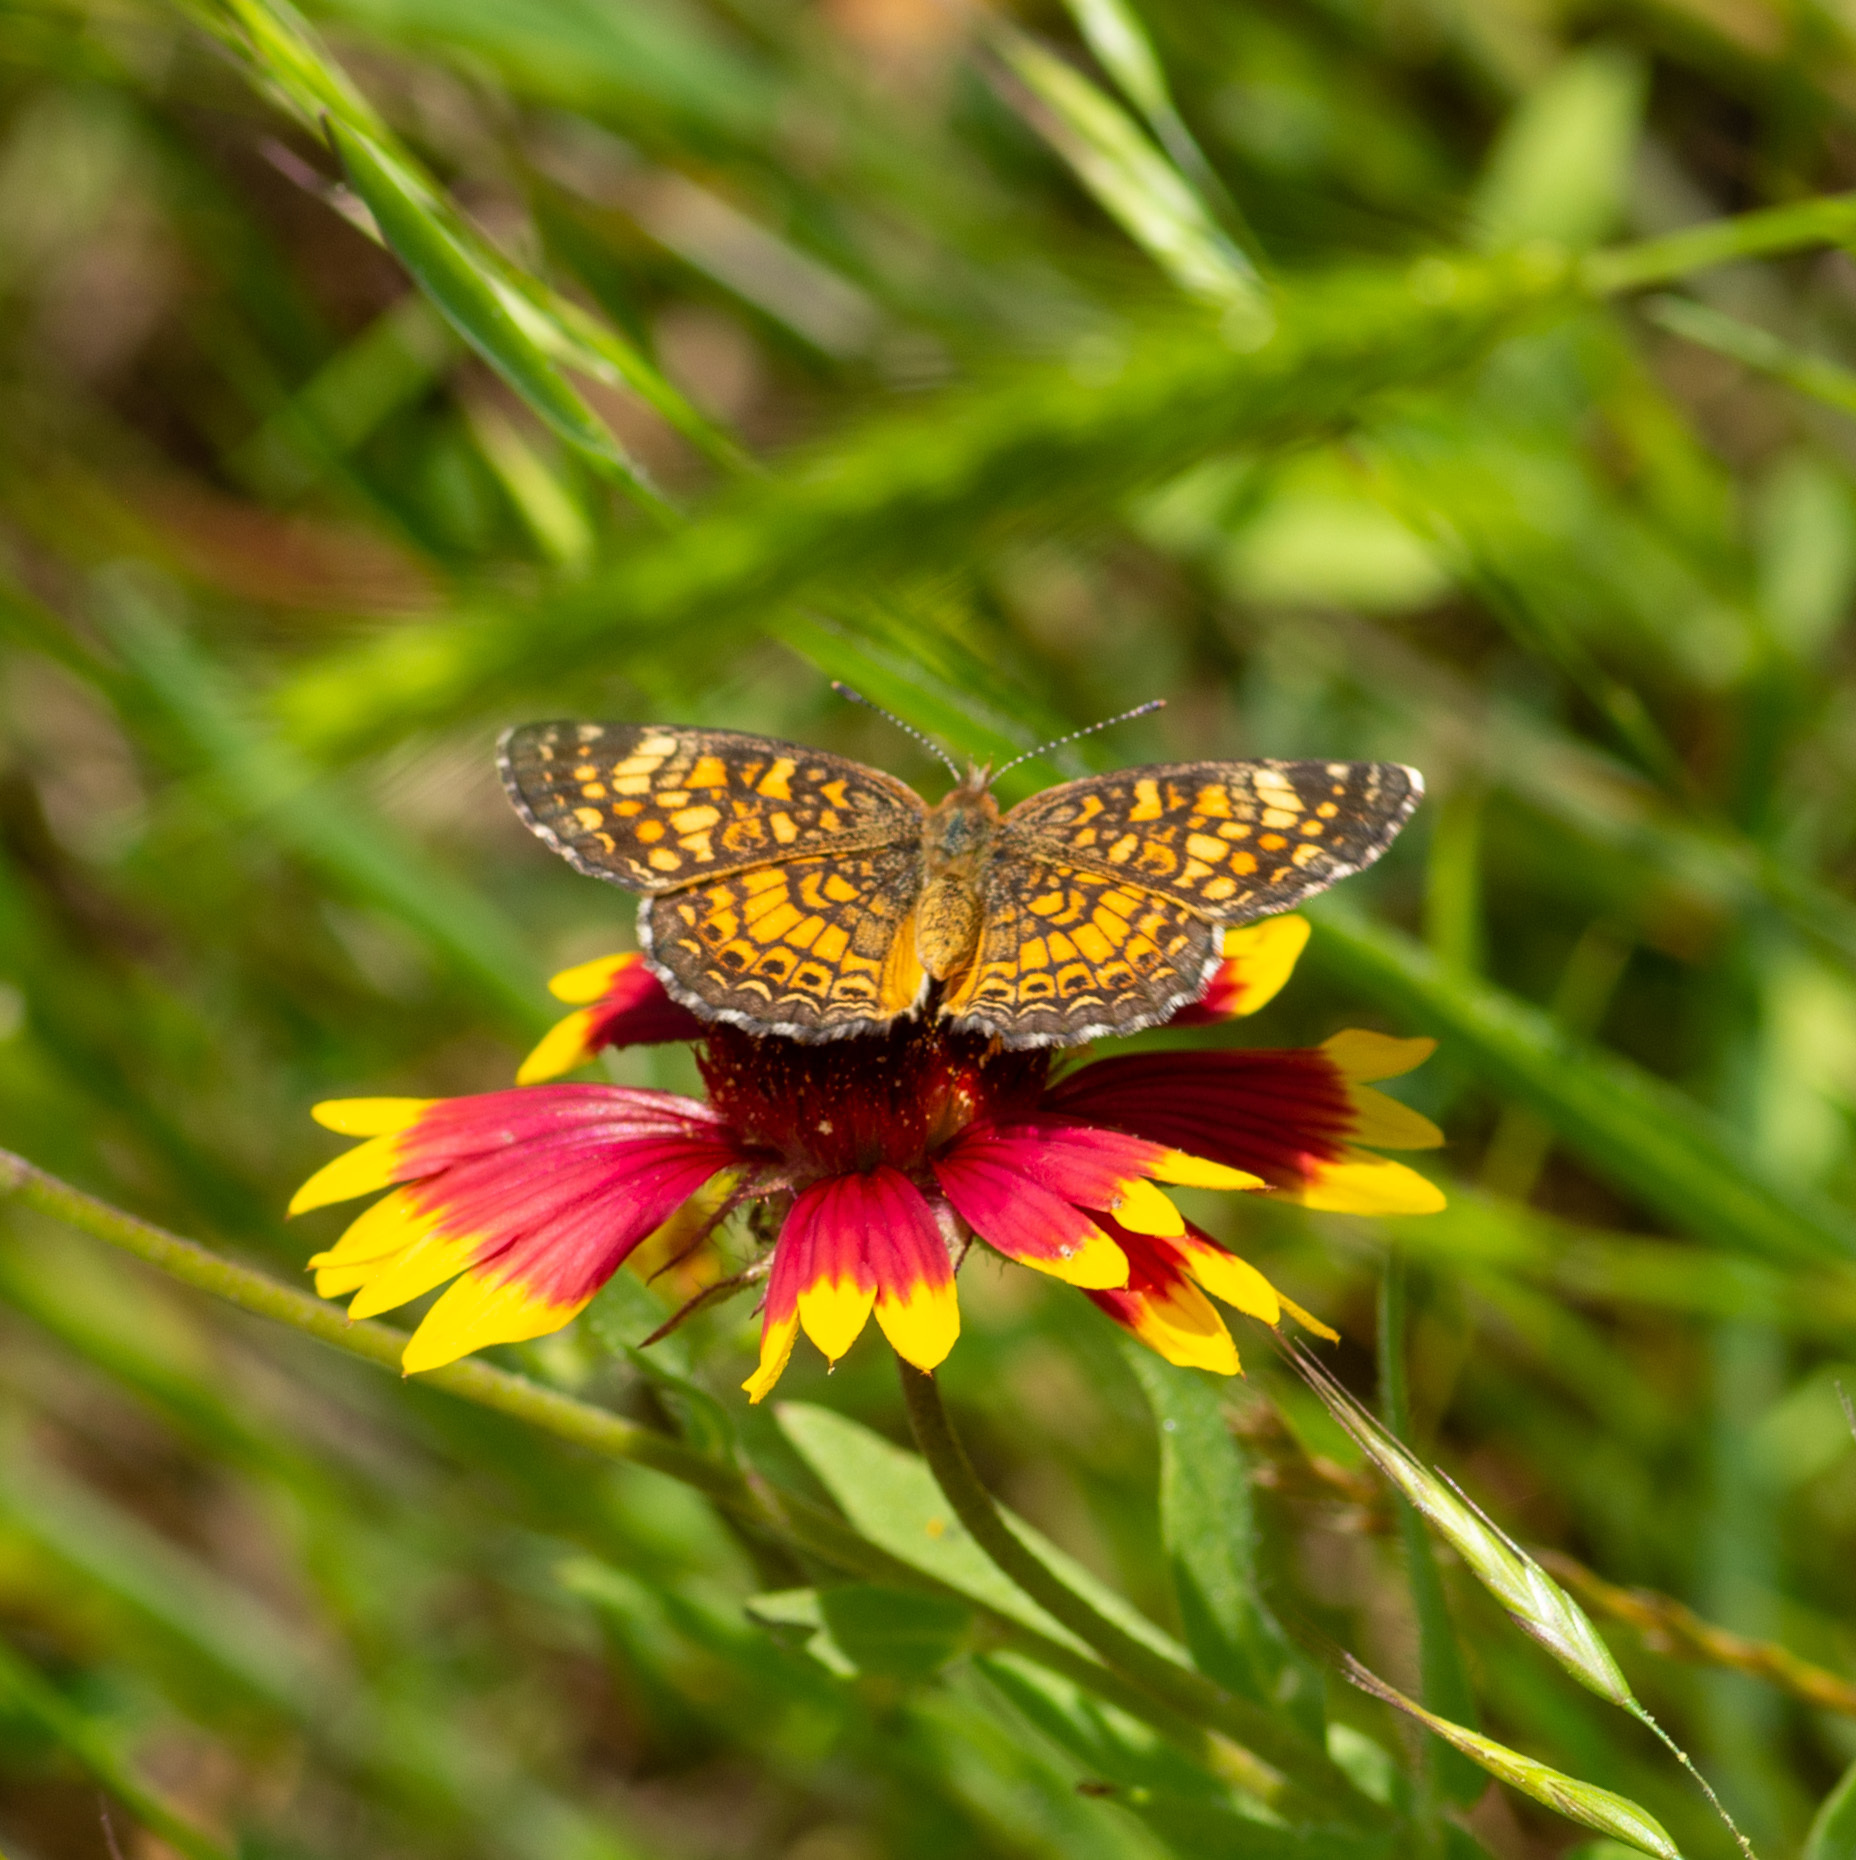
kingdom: Animalia
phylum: Arthropoda
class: Insecta
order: Lepidoptera
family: Nymphalidae
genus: Phyciodes
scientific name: Phyciodes vesta
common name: Vesta crescent
